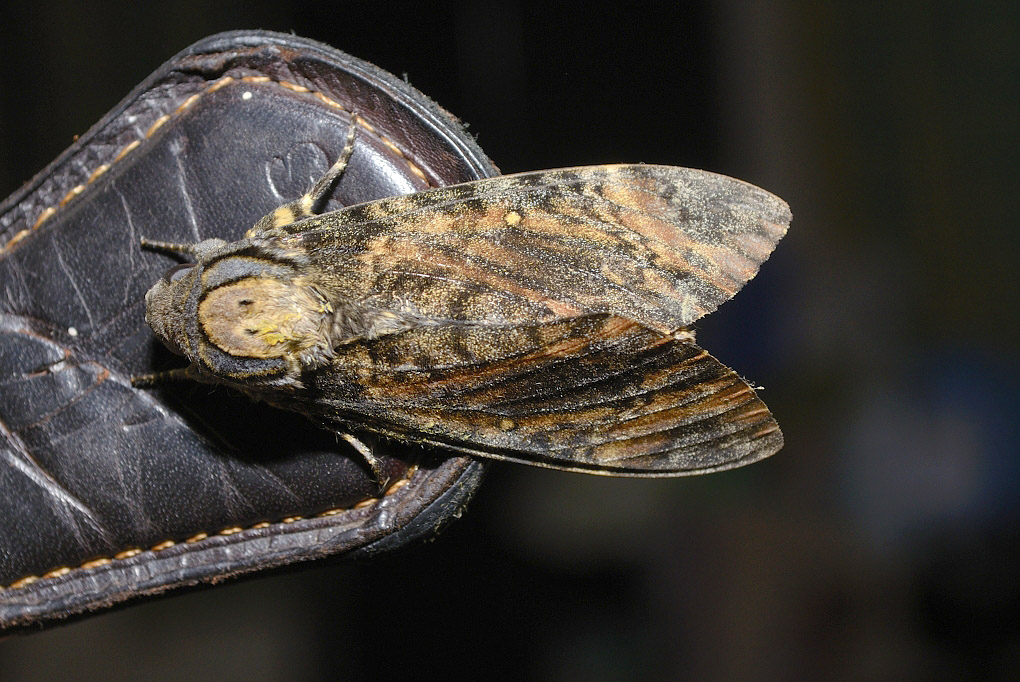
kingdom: Animalia
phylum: Arthropoda
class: Insecta
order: Lepidoptera
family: Sphingidae
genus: Acherontia
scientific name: Acherontia styx
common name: Death's-head hawk moth
